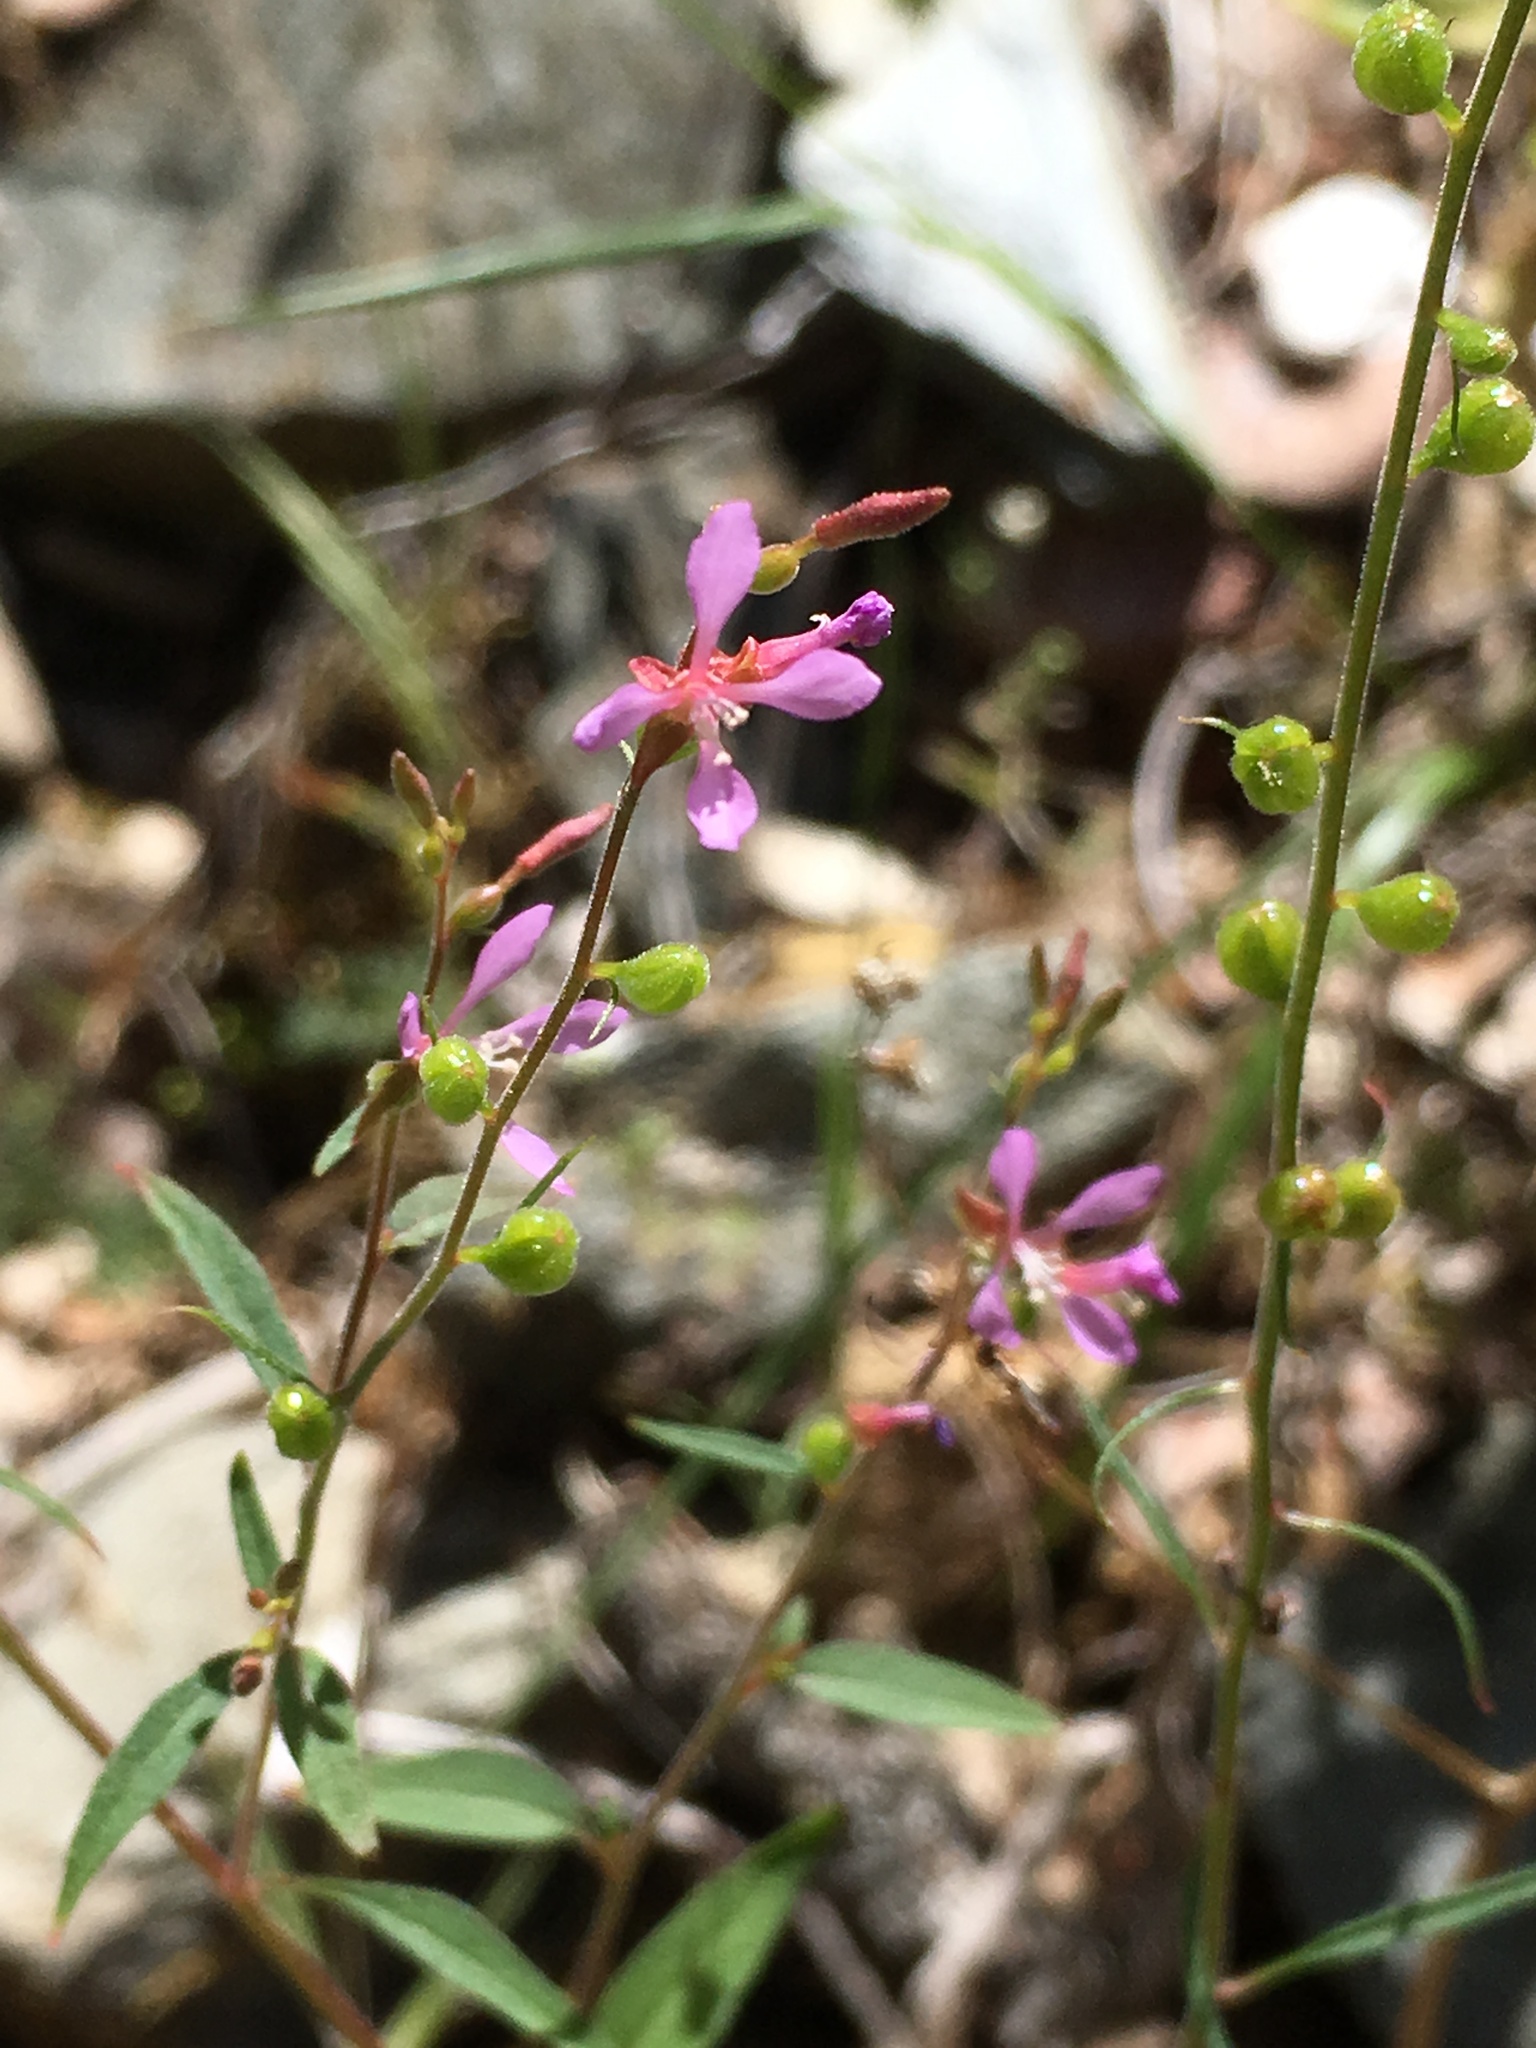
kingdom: Plantae
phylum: Tracheophyta
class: Magnoliopsida
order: Myrtales
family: Onagraceae
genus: Clarkia
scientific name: Clarkia heterandra
